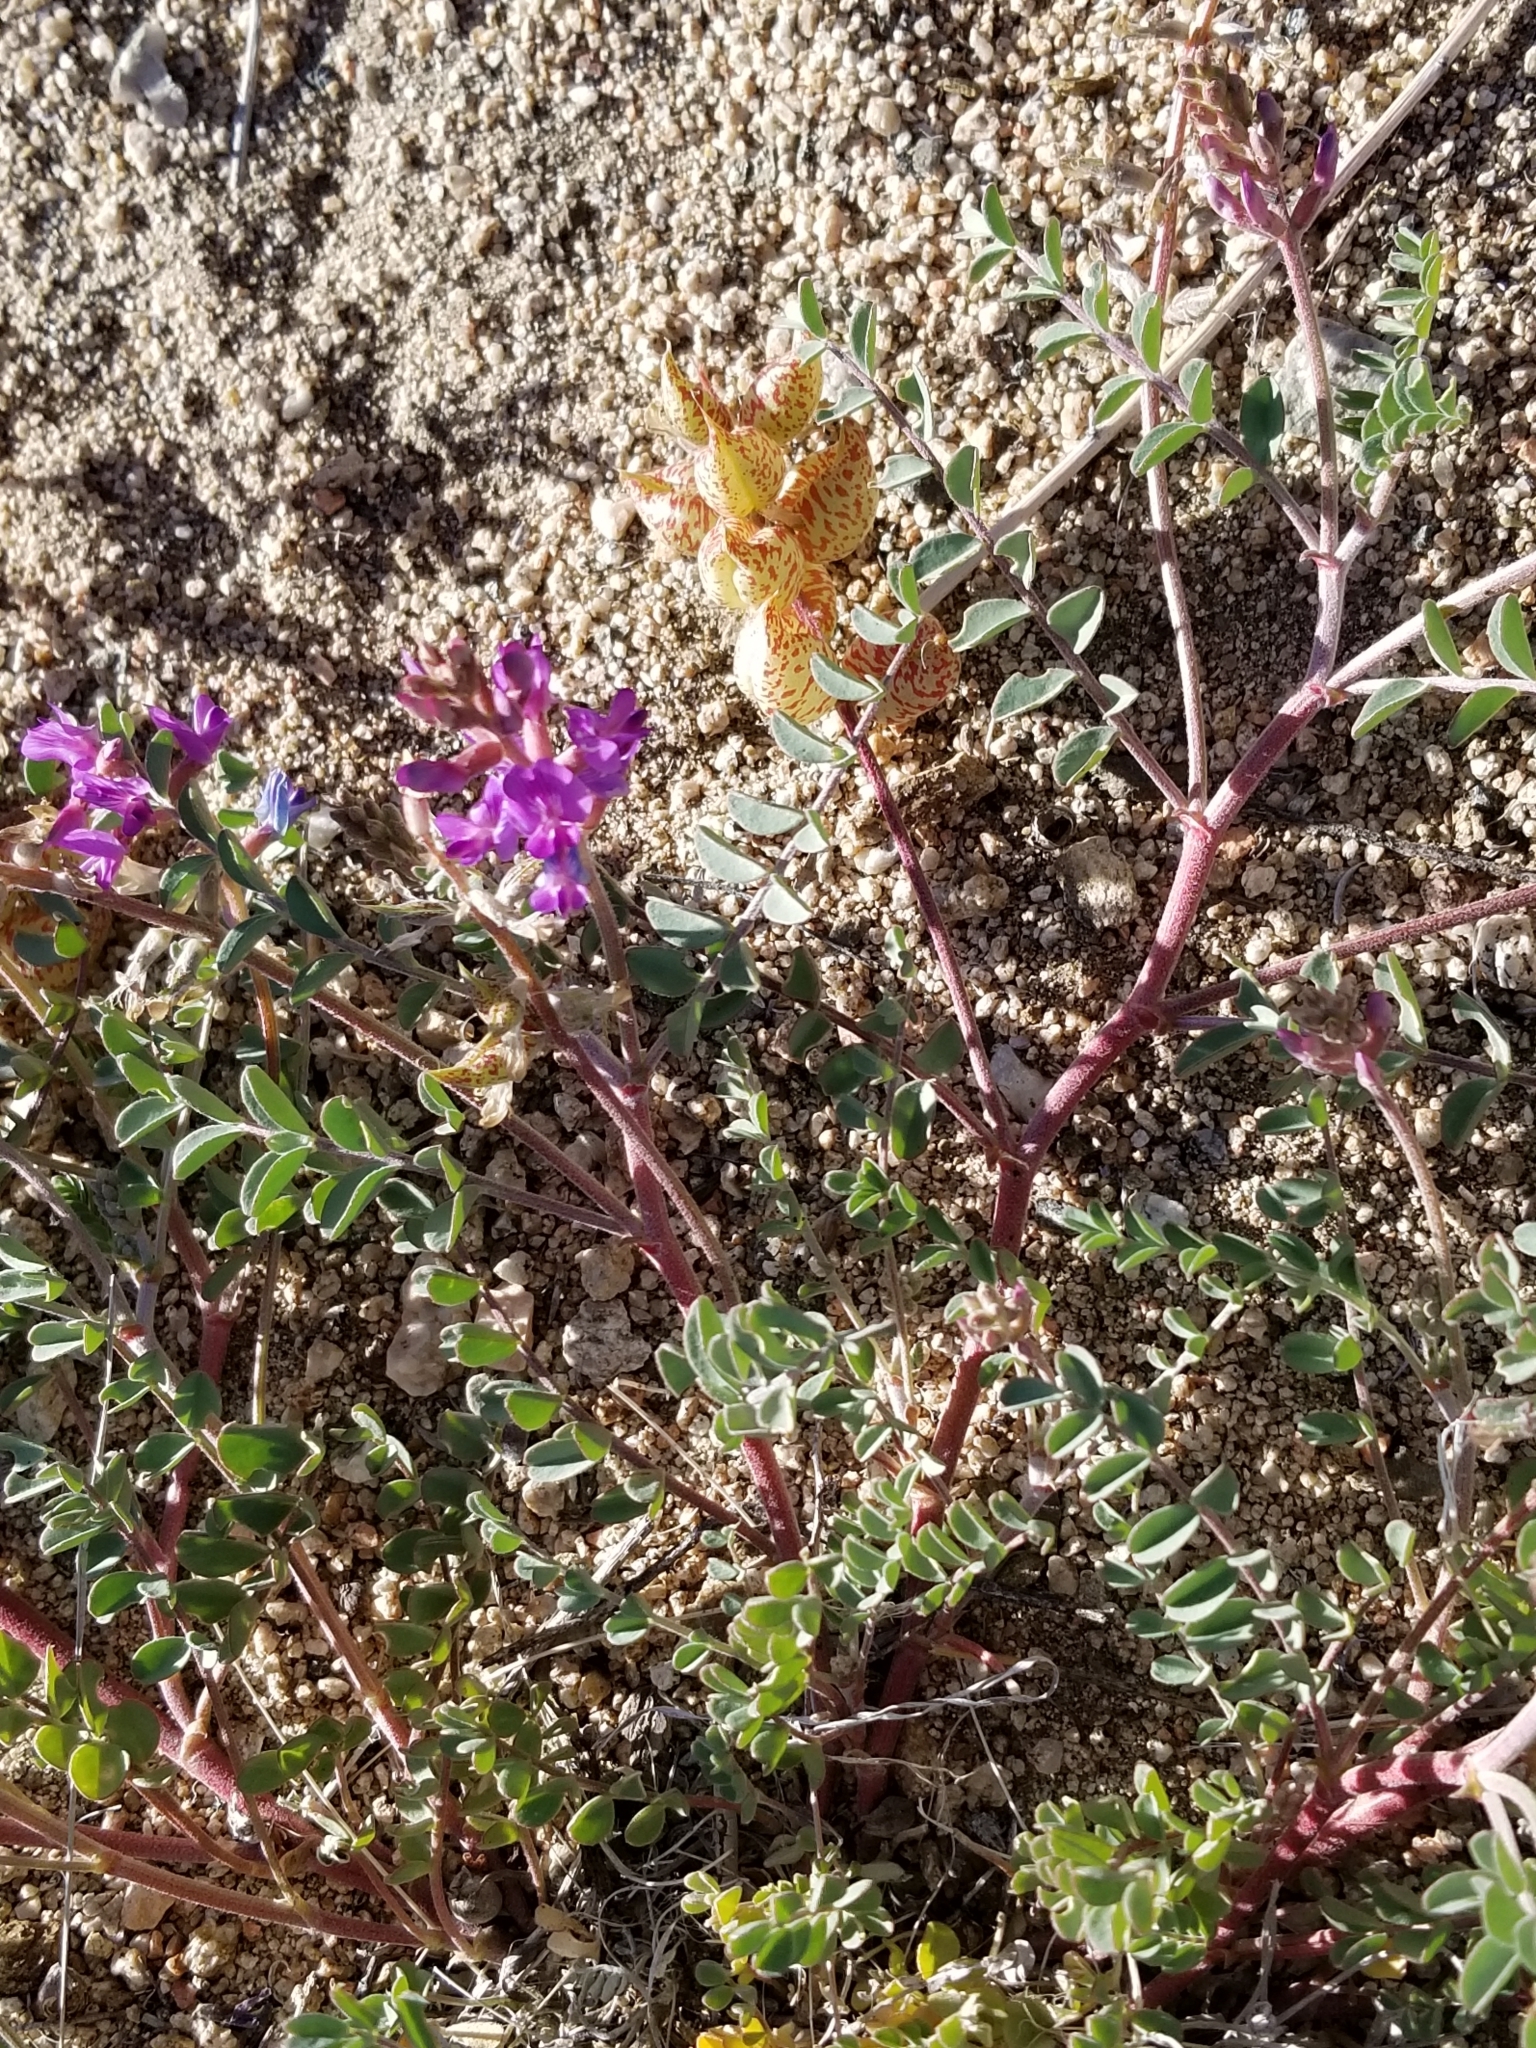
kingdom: Plantae
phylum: Tracheophyta
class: Magnoliopsida
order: Fabales
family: Fabaceae
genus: Astragalus
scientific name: Astragalus lentiginosus
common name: Freckled milkvetch
